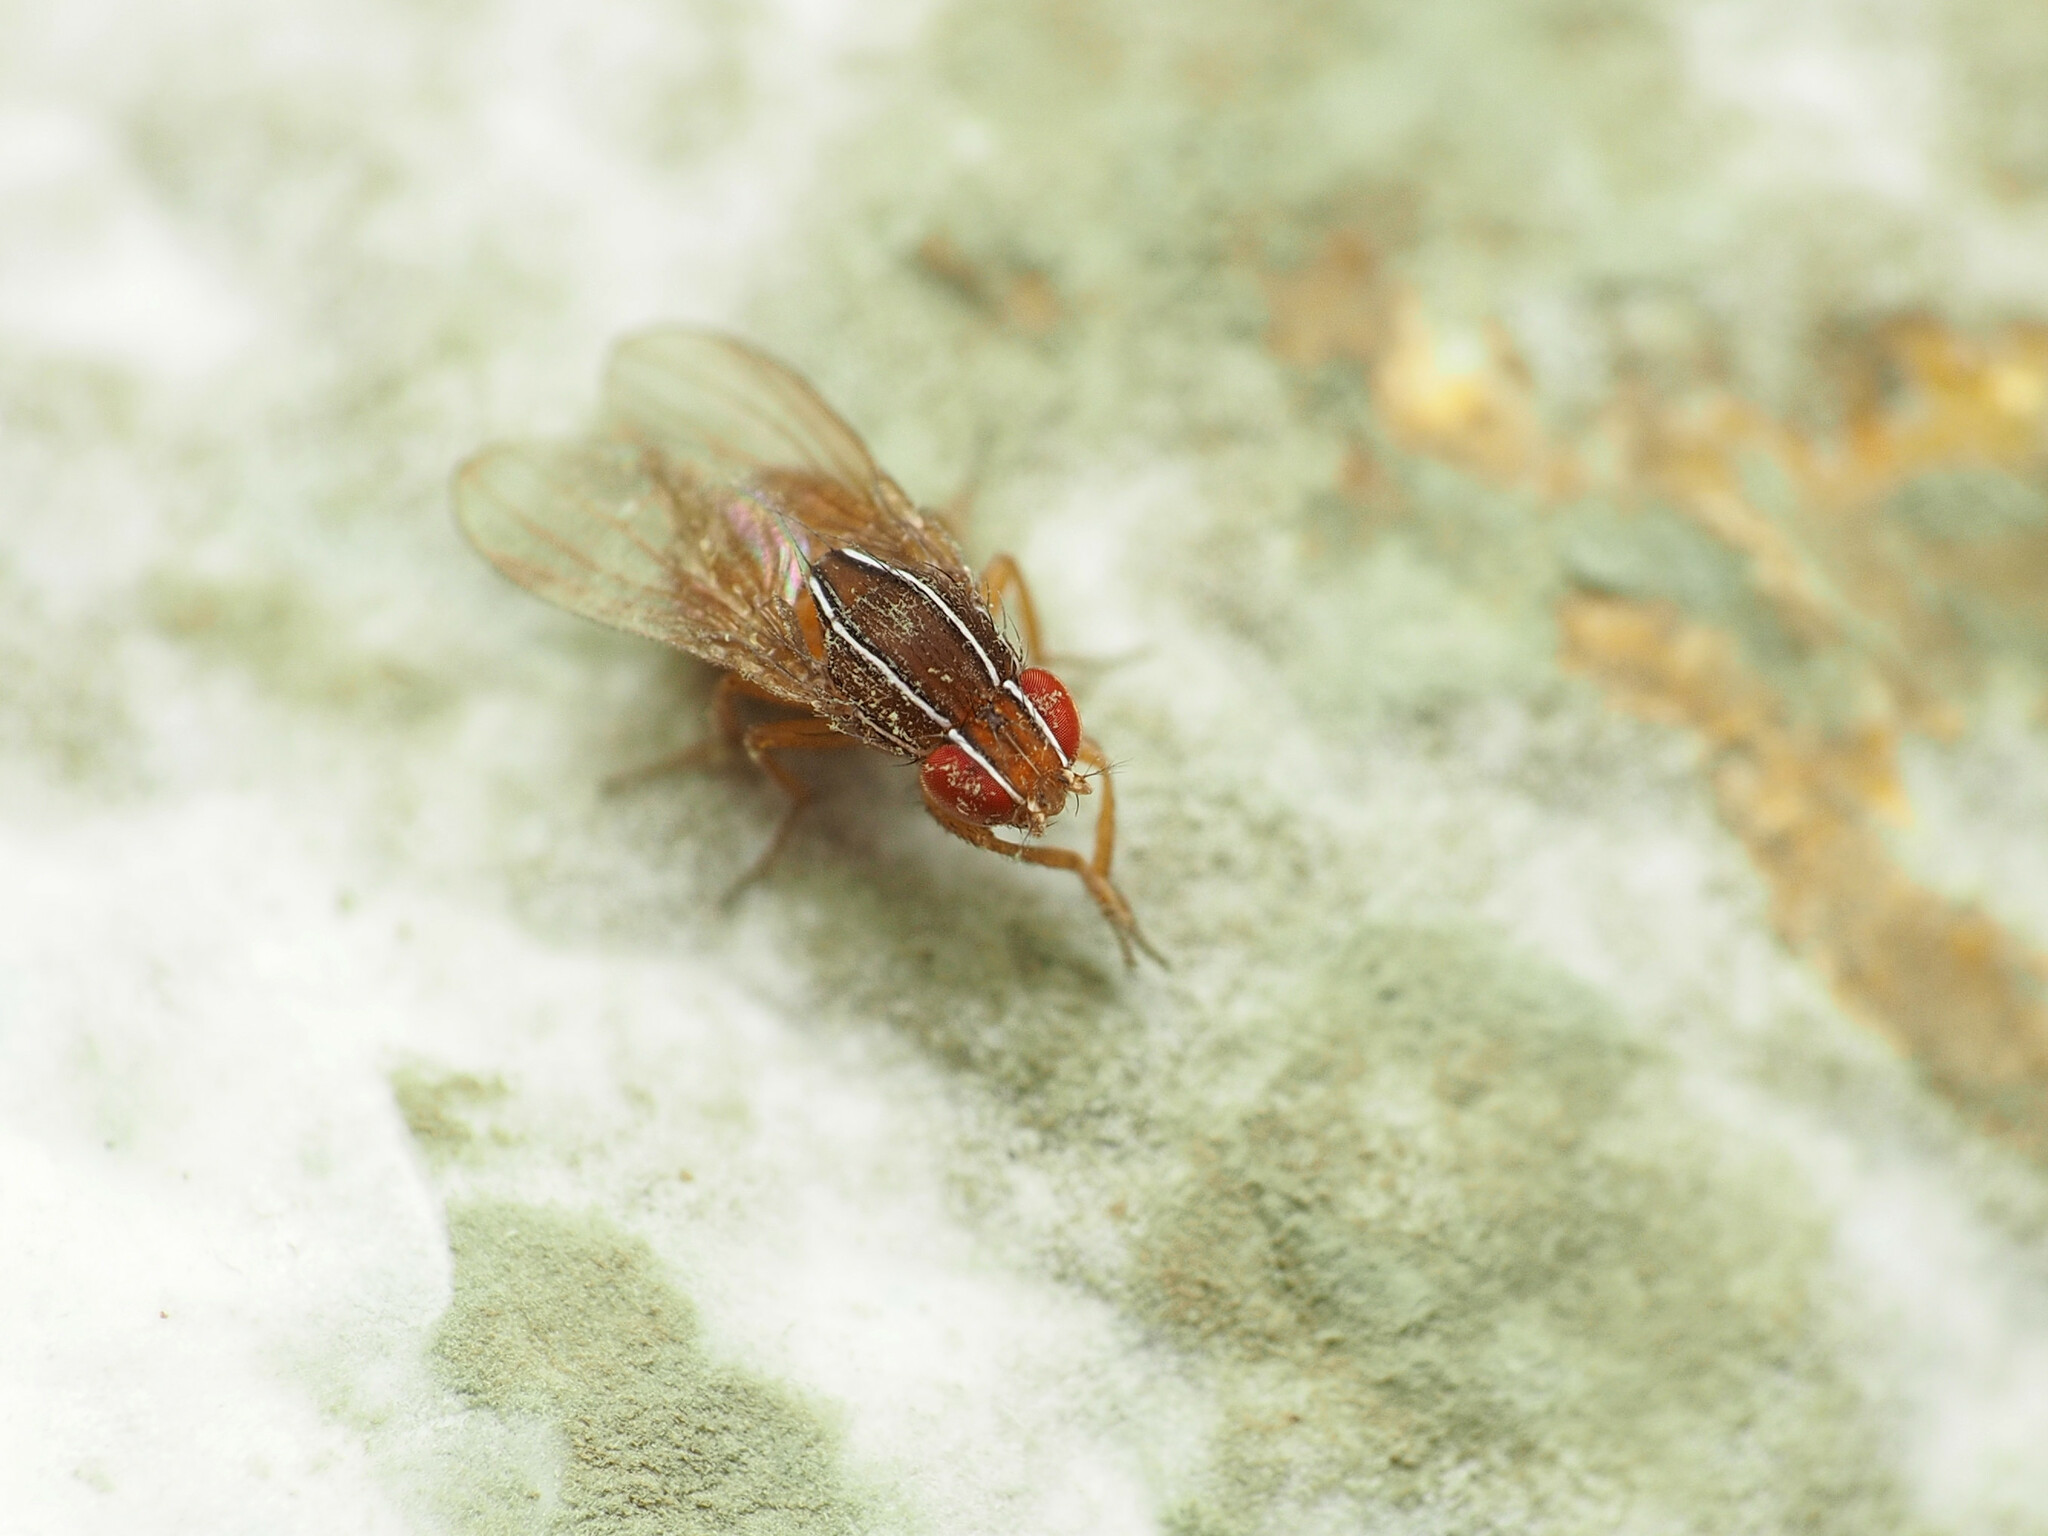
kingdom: Animalia
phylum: Arthropoda
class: Insecta
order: Diptera
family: Drosophilidae
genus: Zaprionus
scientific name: Zaprionus indianus
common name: African fig fly
